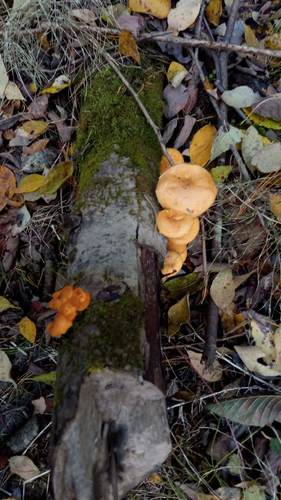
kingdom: Fungi
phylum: Basidiomycota
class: Agaricomycetes
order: Agaricales
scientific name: Agaricales
